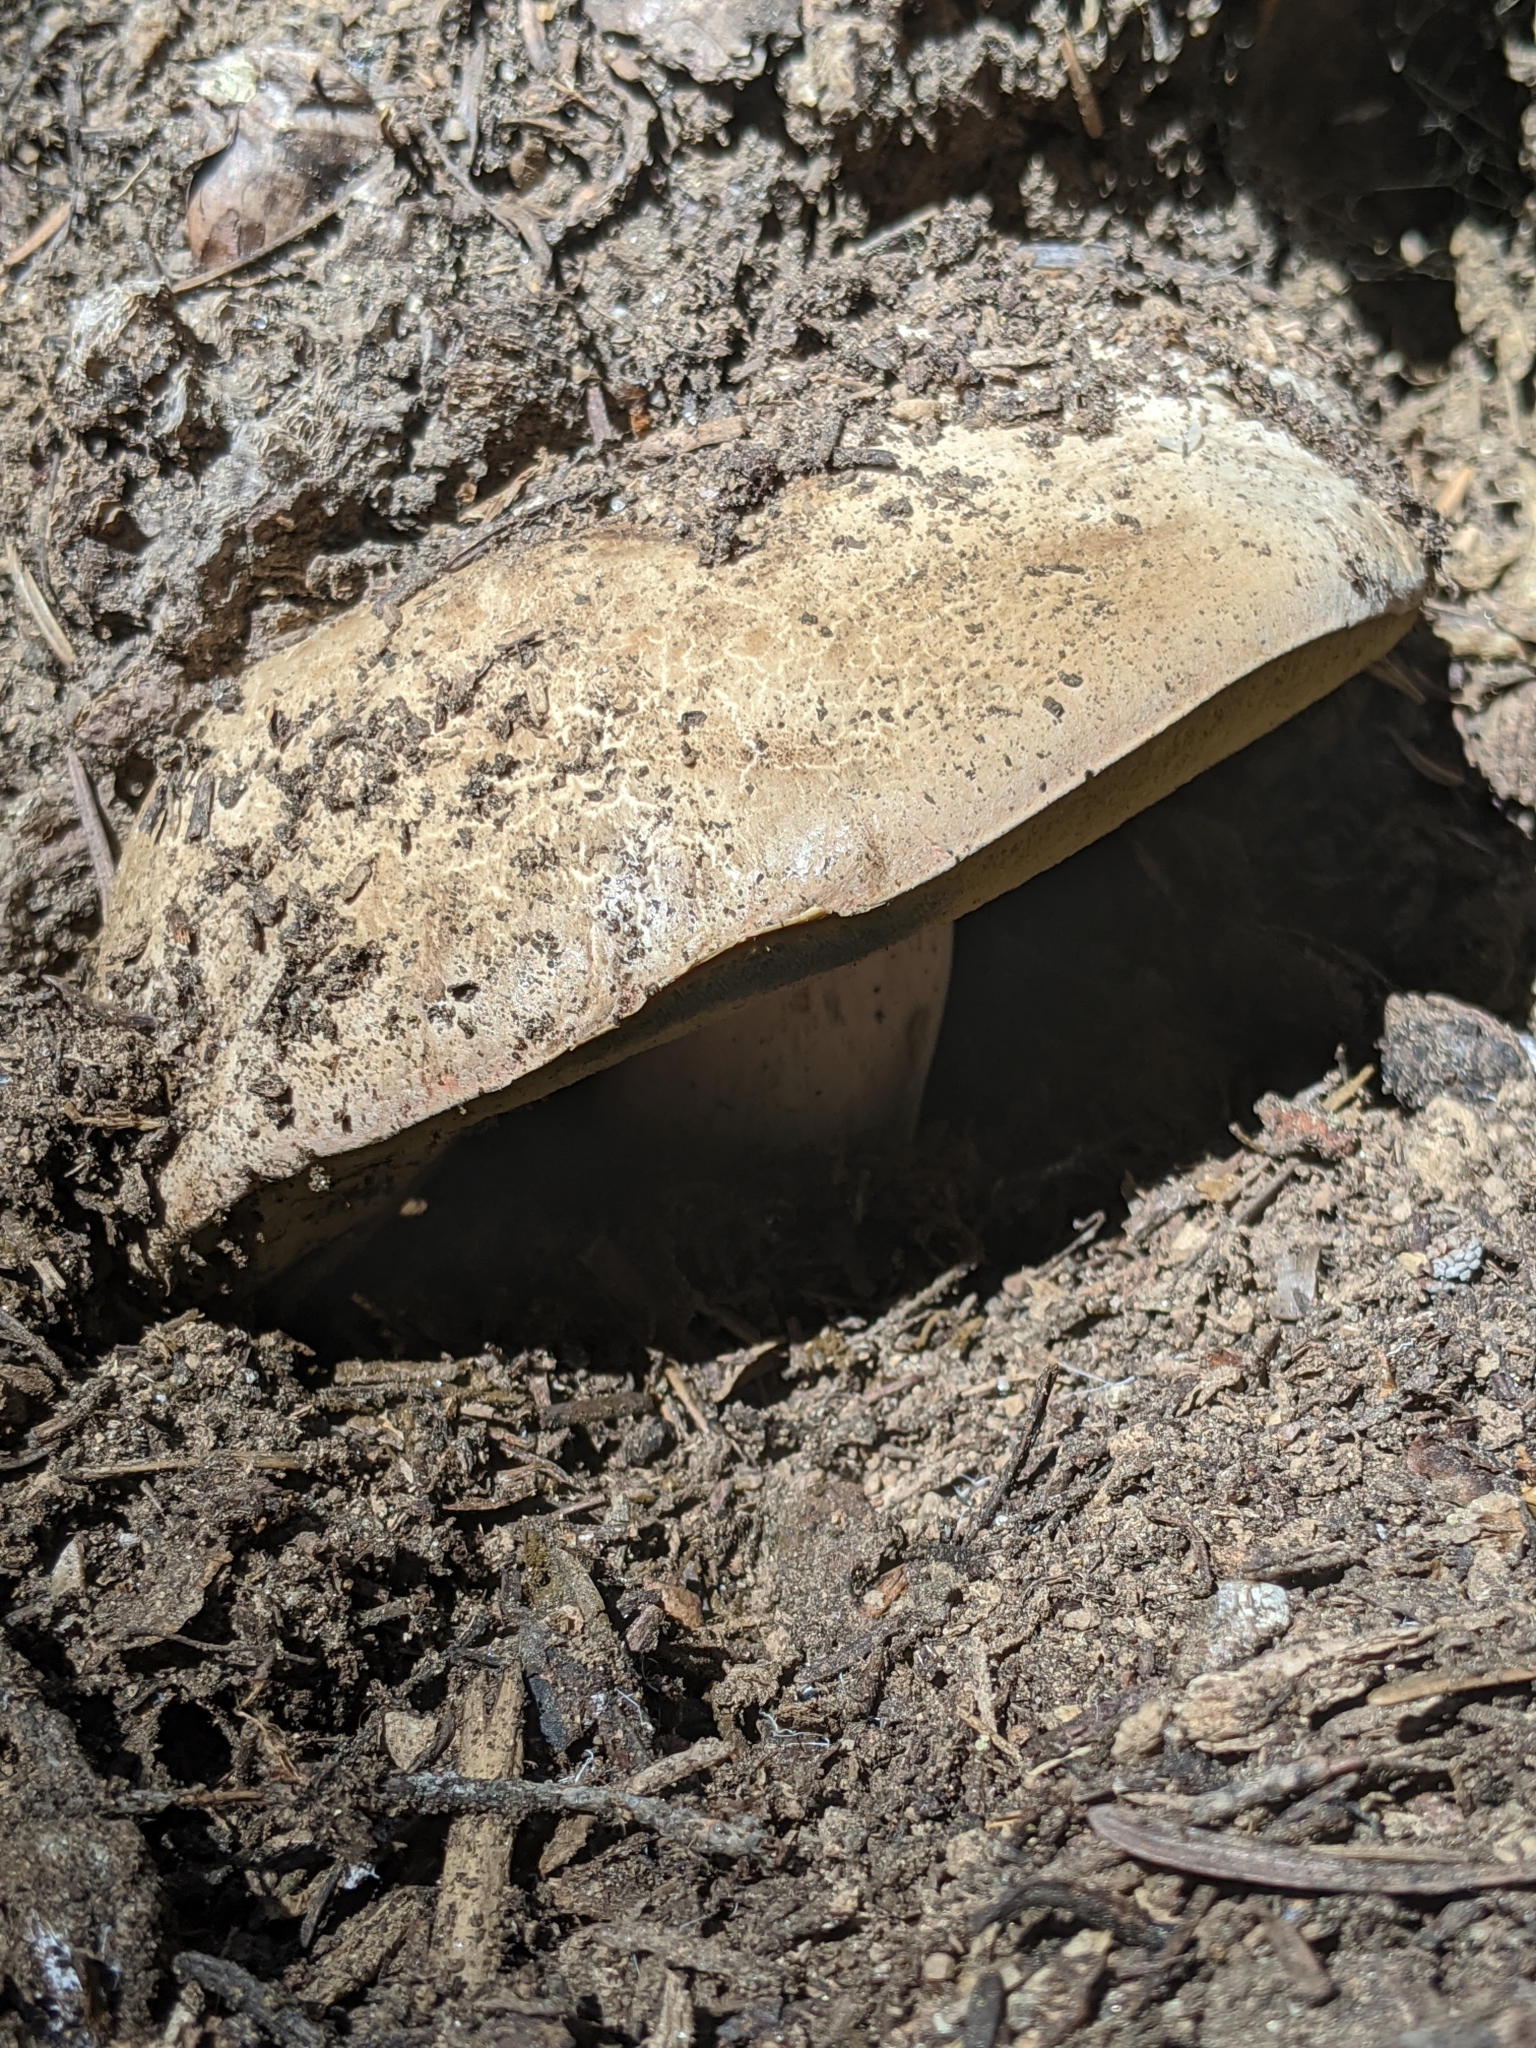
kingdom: Fungi
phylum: Basidiomycota
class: Agaricomycetes
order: Boletales
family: Boletaceae
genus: Caloboletus
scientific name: Caloboletus frustosus
